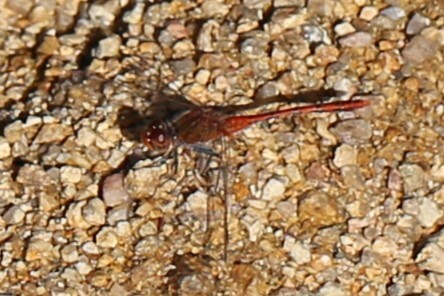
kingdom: Animalia
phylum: Arthropoda
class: Insecta
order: Odonata
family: Libellulidae
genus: Diplacodes
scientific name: Diplacodes bipunctata
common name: Red percher dragonfly
